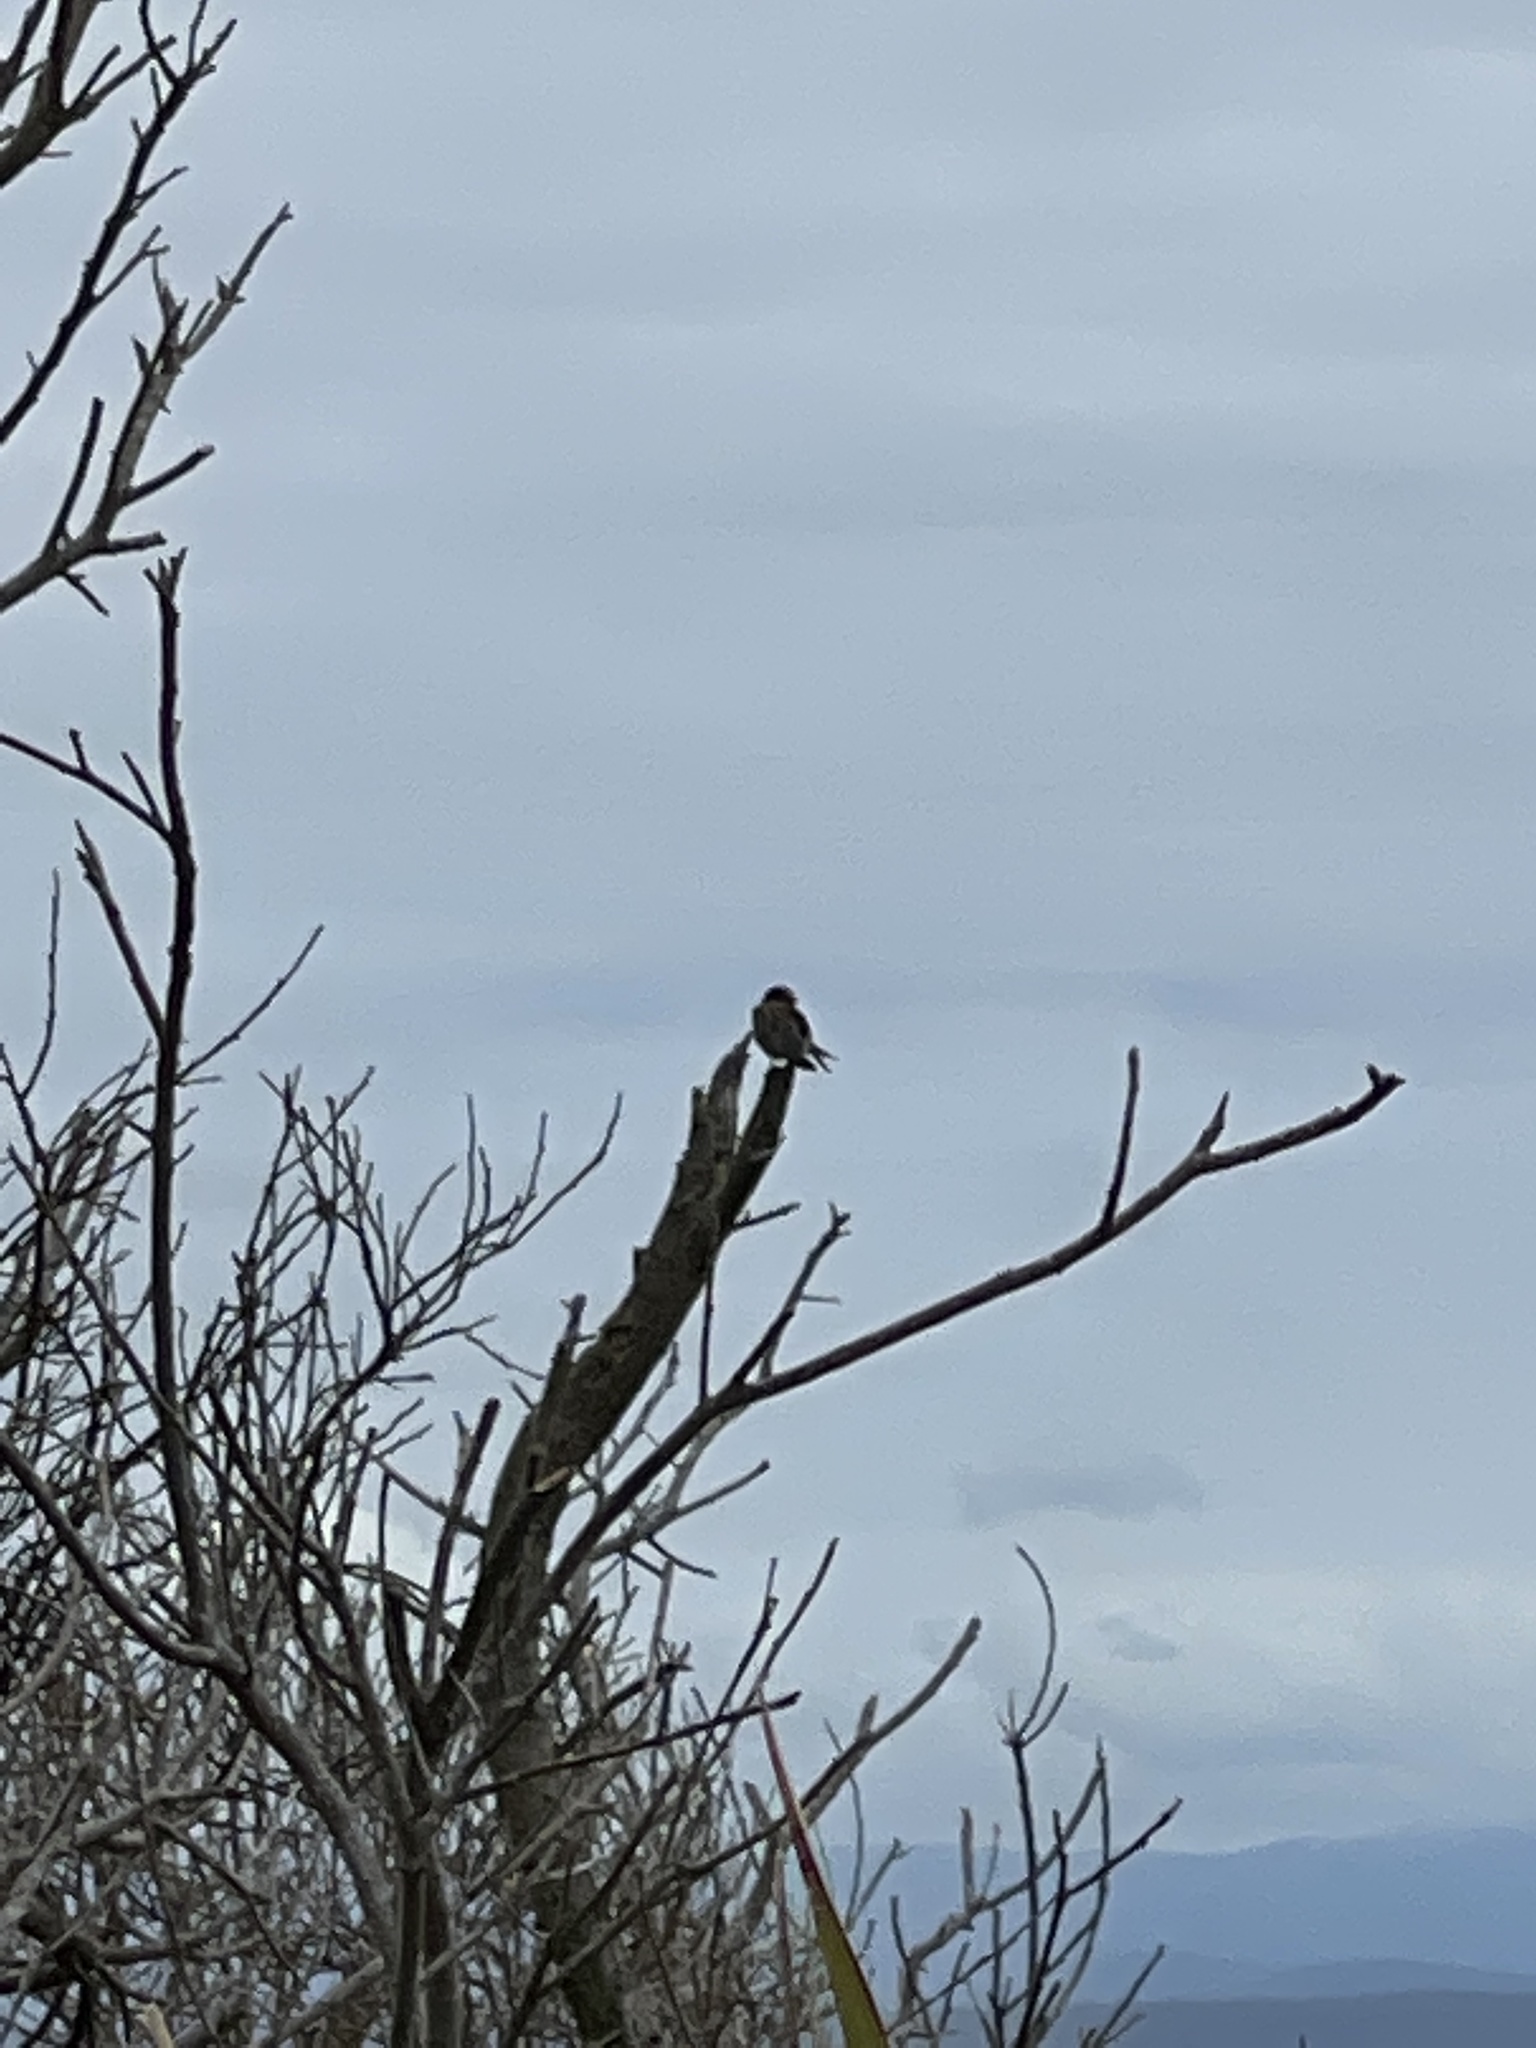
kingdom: Animalia
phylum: Chordata
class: Aves
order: Passeriformes
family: Hirundinidae
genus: Hirundo
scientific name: Hirundo neoxena
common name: Welcome swallow
